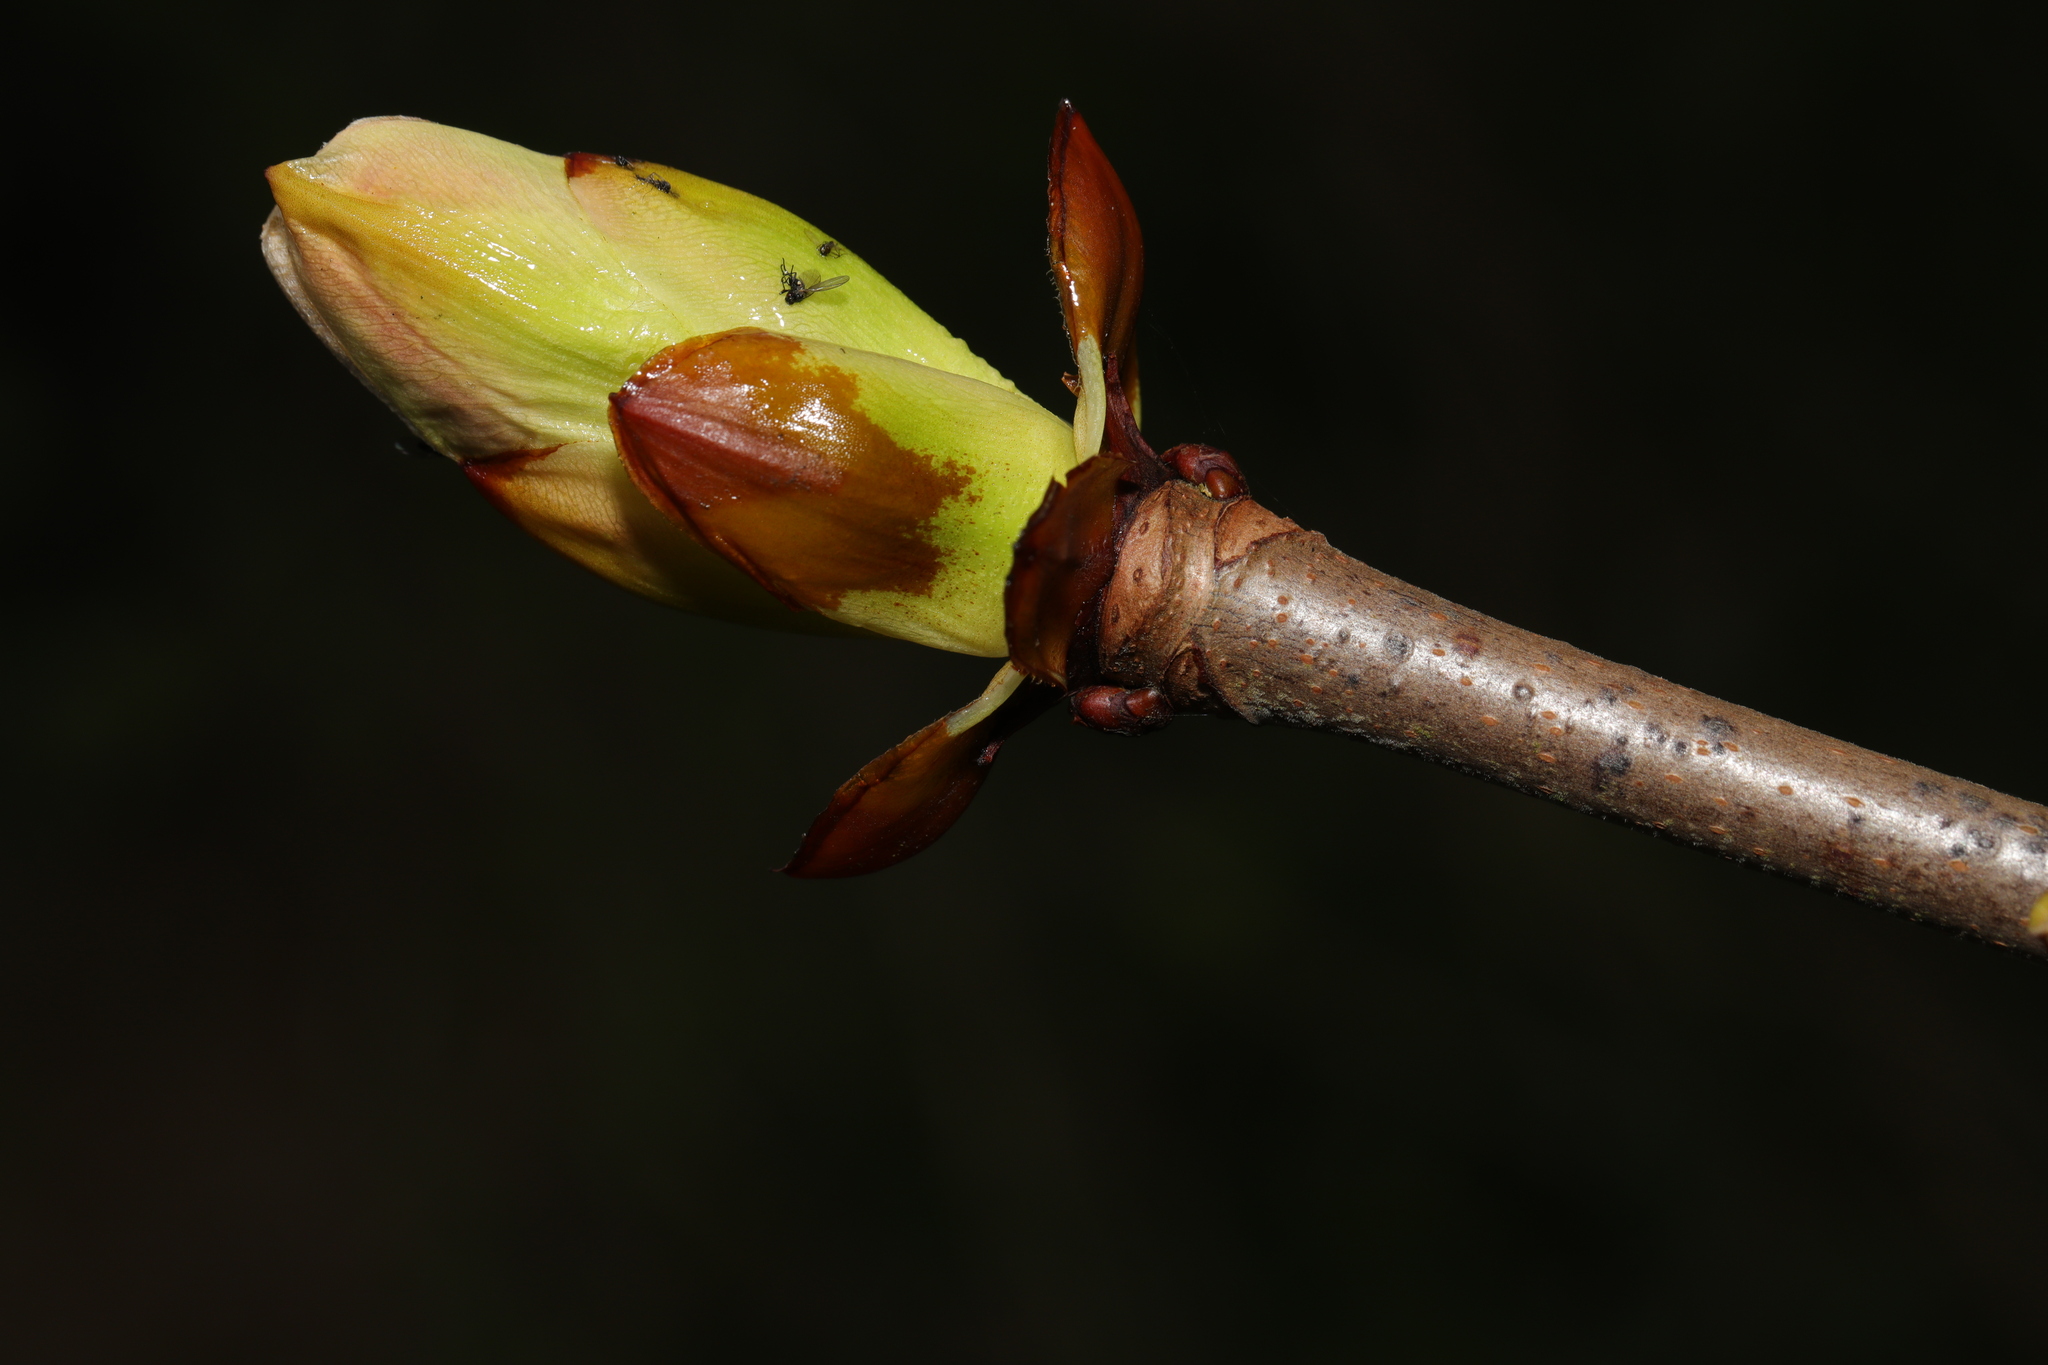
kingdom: Plantae
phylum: Tracheophyta
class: Magnoliopsida
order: Sapindales
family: Sapindaceae
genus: Aesculus
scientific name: Aesculus hippocastanum
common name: Horse-chestnut
